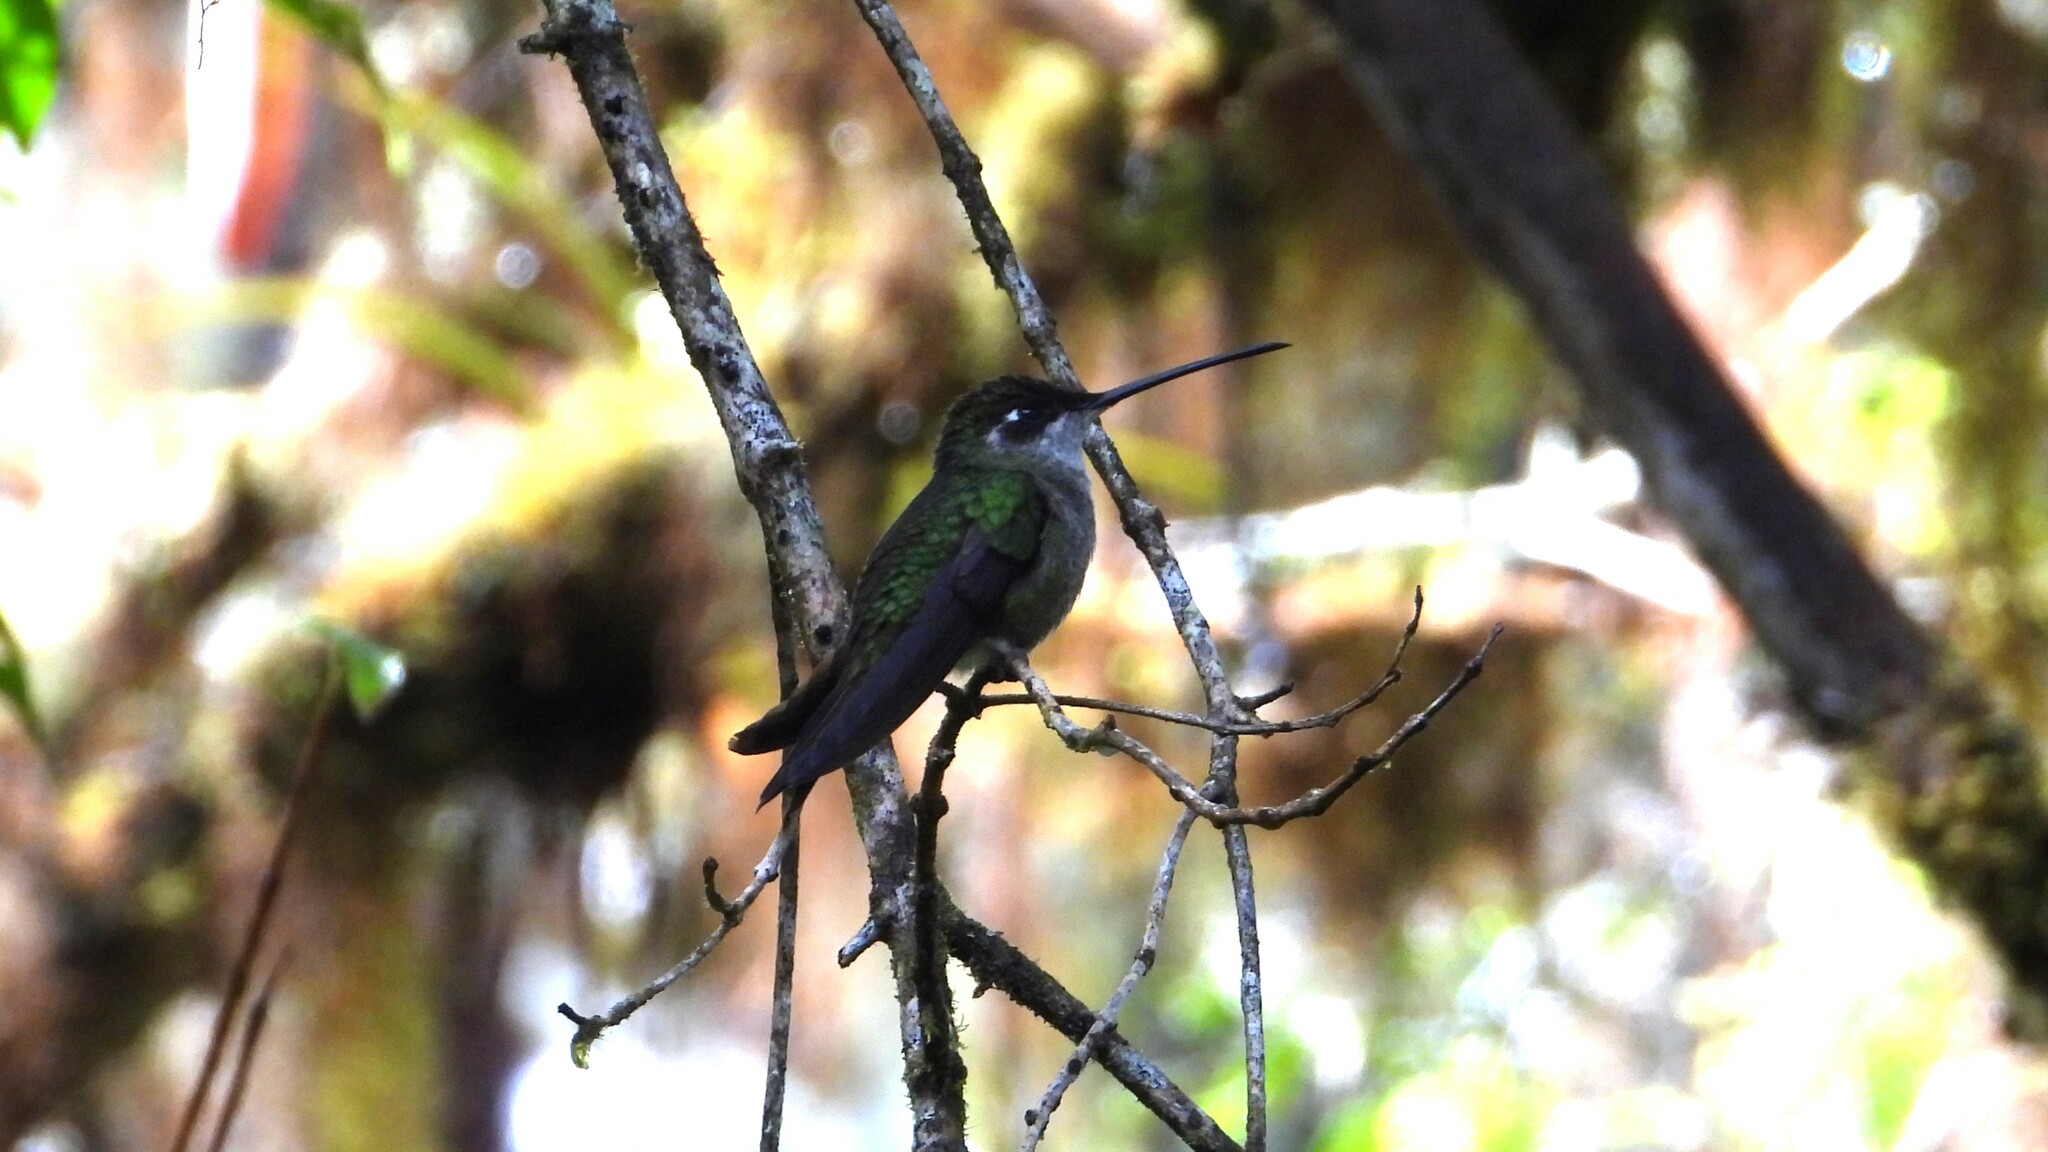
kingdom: Animalia
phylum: Chordata
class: Aves
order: Apodiformes
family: Trochilidae
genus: Eugenes
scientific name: Eugenes spectabilis
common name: Talamanca hummingbird
